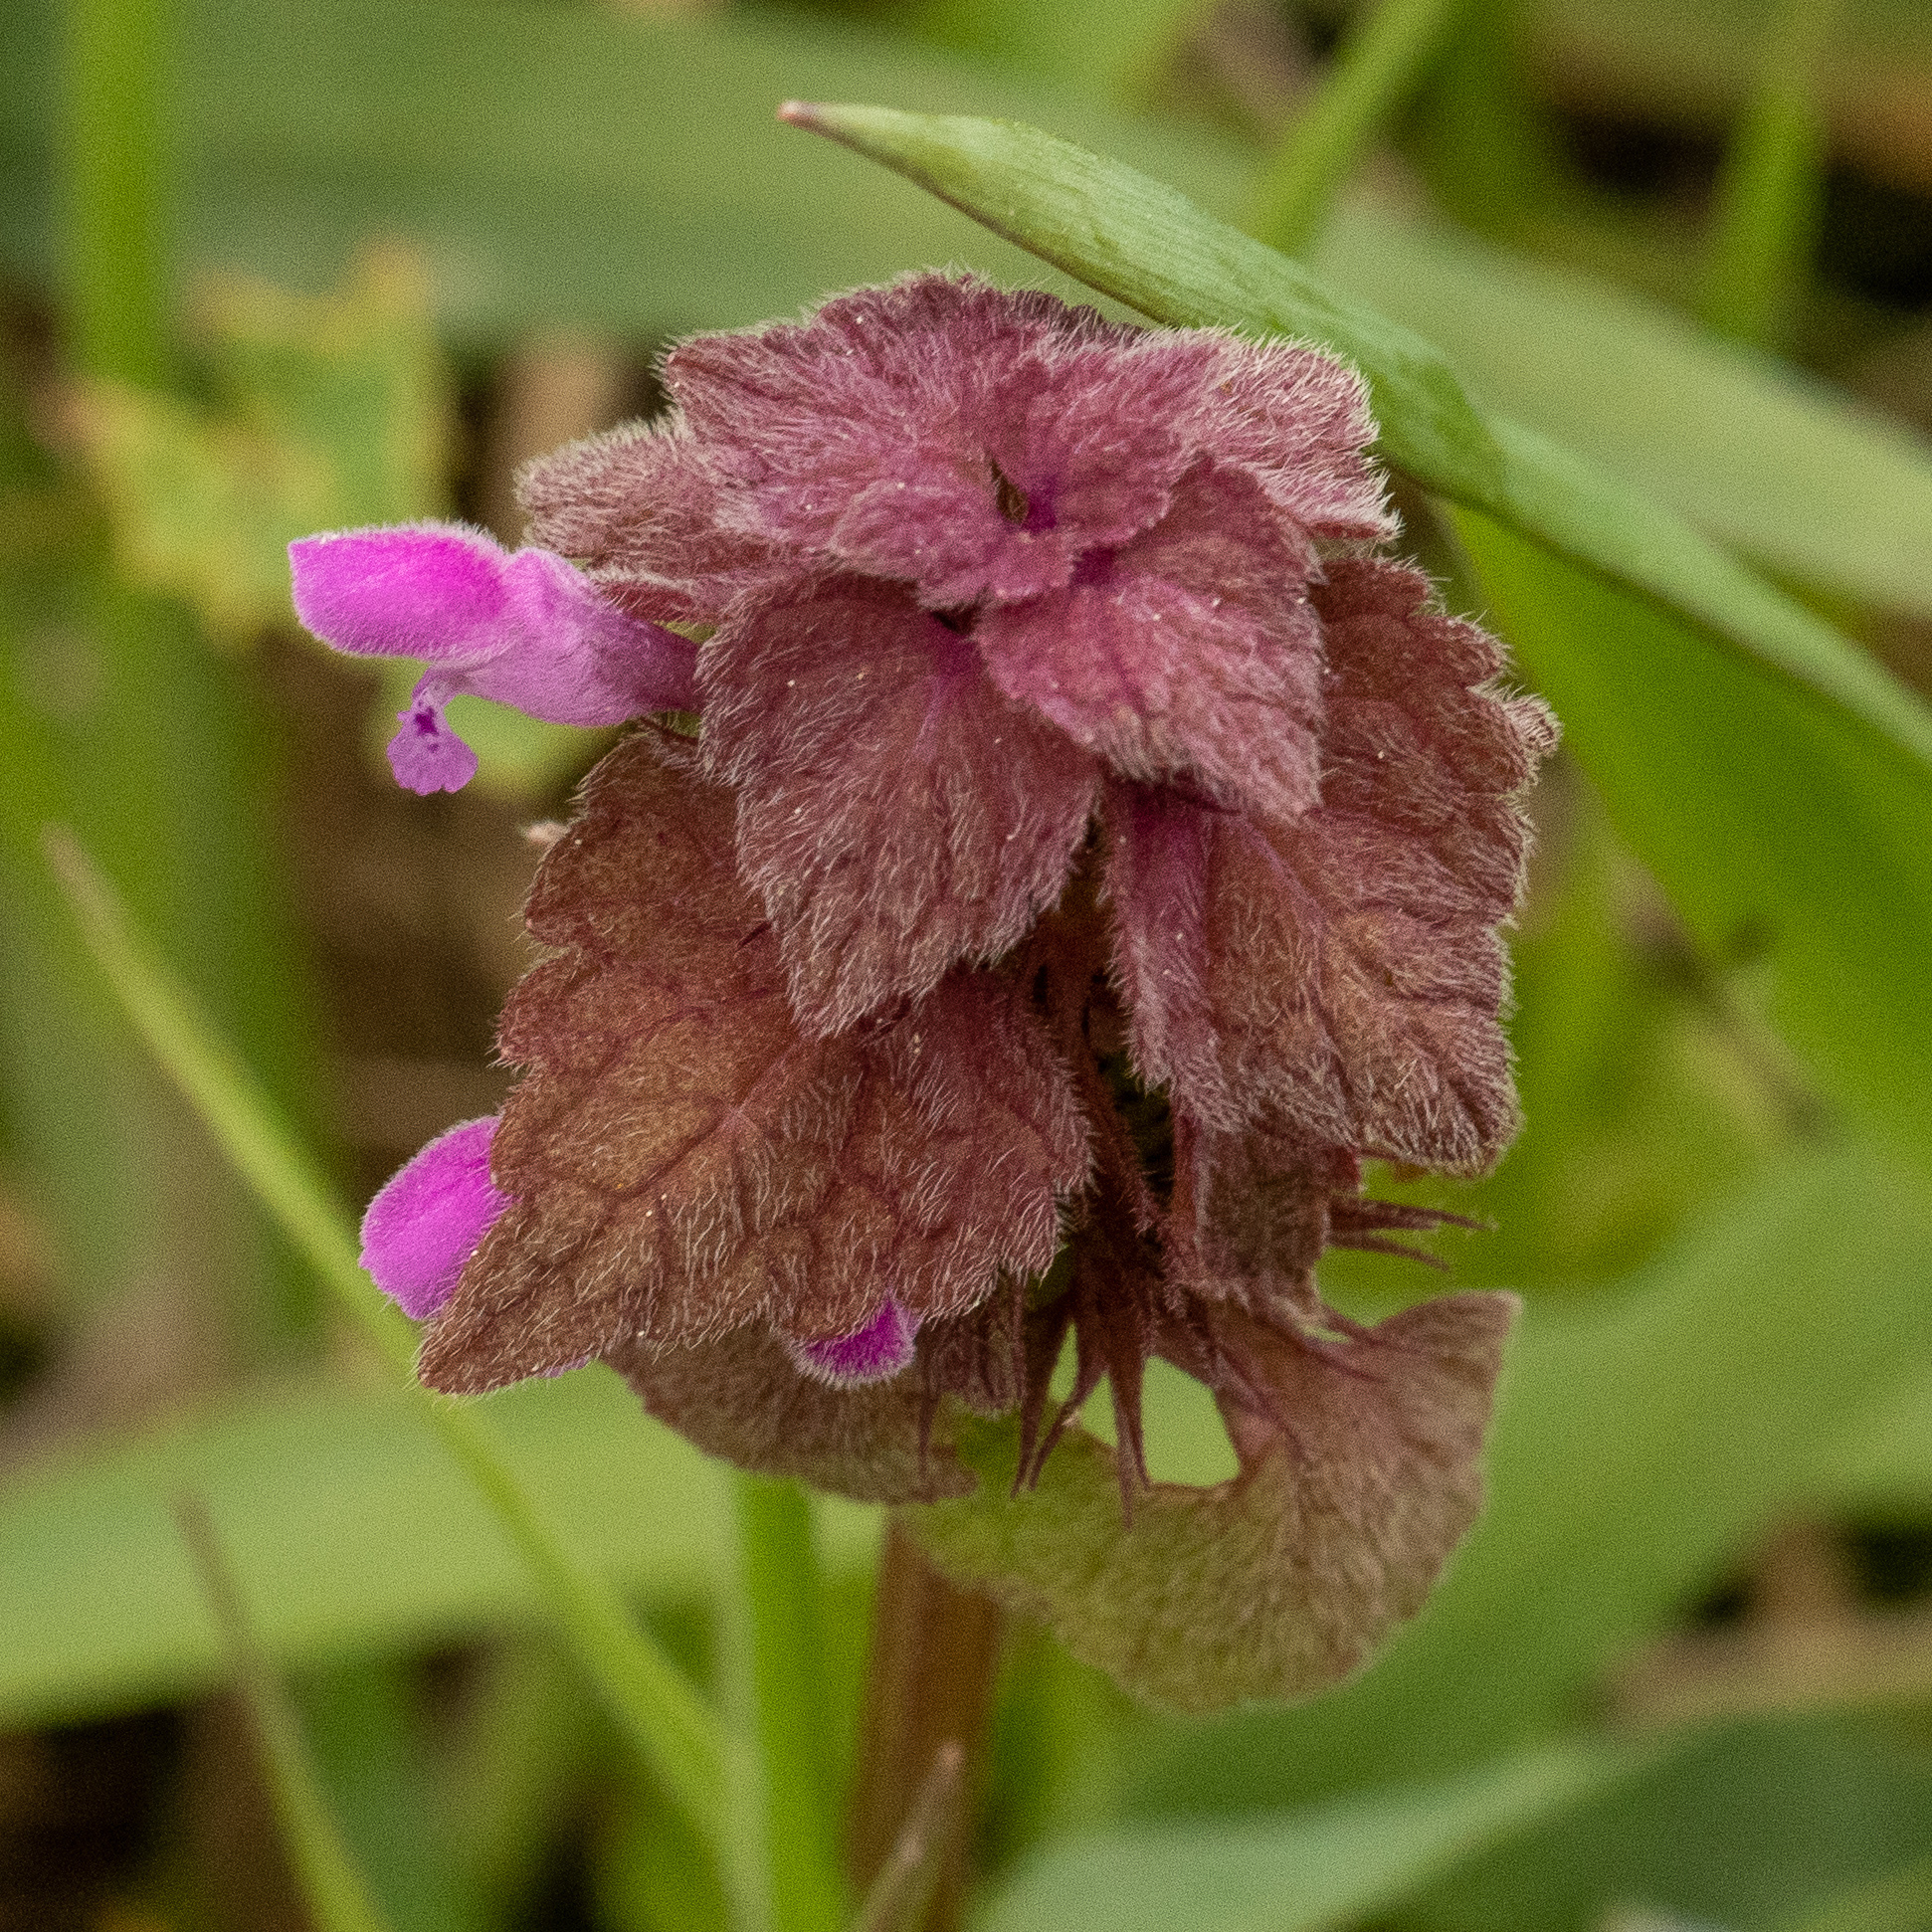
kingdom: Plantae
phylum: Tracheophyta
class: Magnoliopsida
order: Lamiales
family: Lamiaceae
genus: Lamium
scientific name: Lamium purpureum
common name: Red dead-nettle
